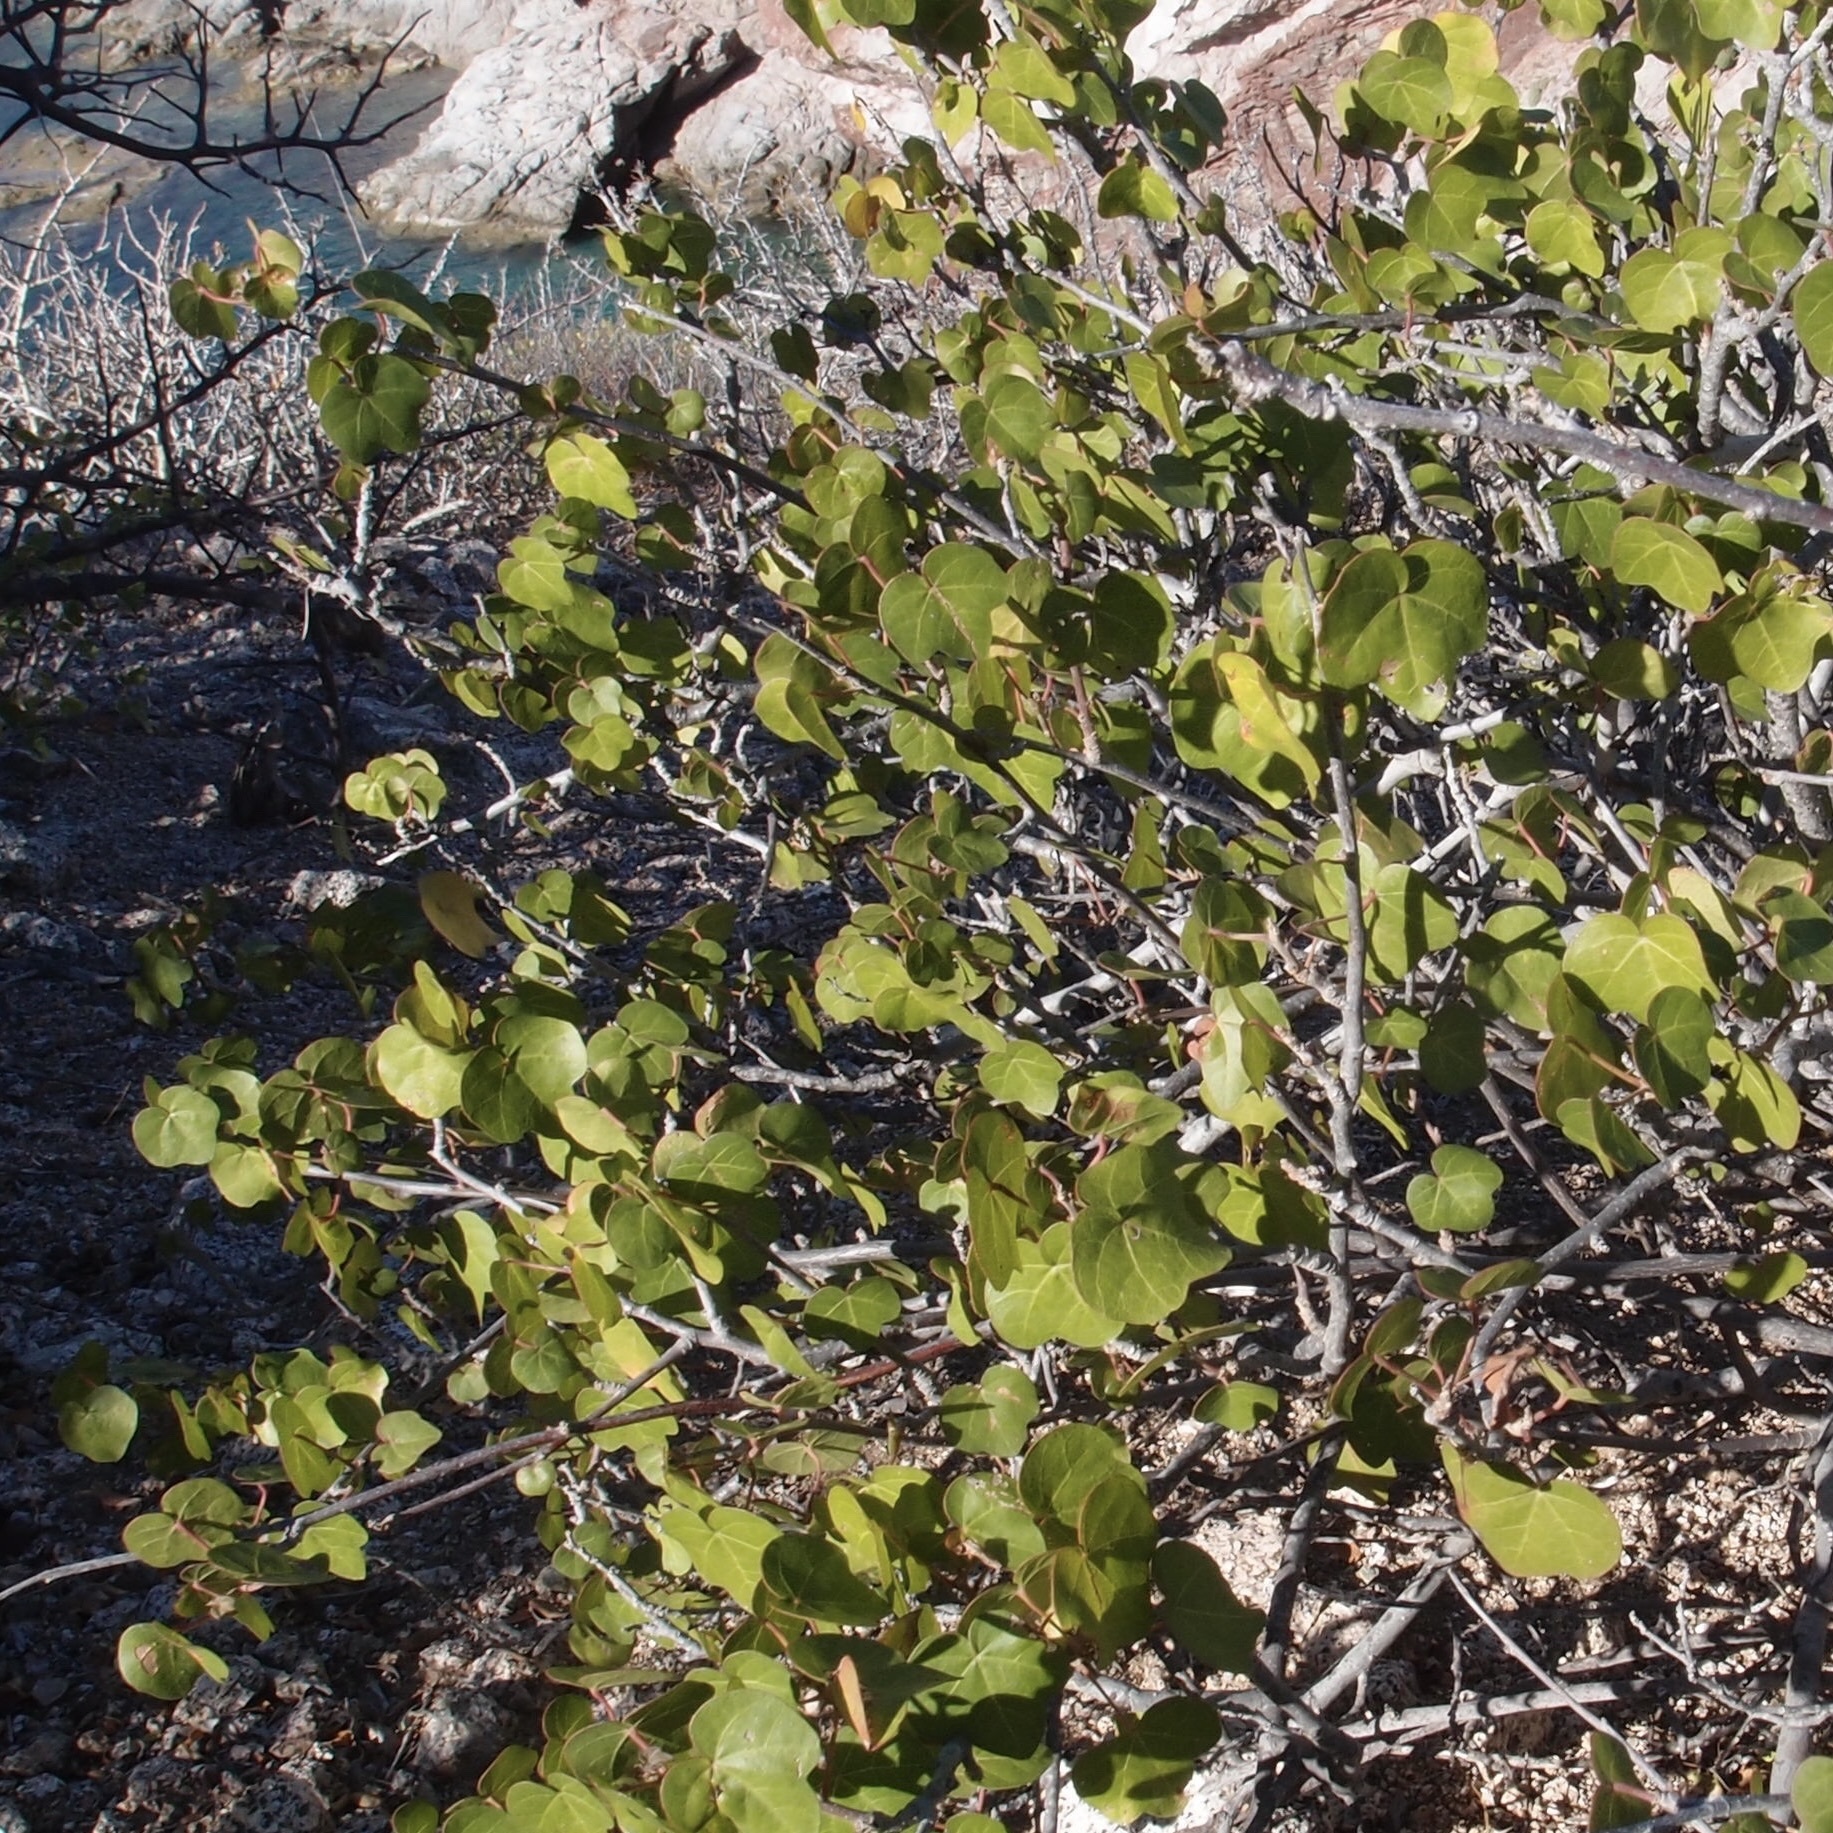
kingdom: Plantae
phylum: Tracheophyta
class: Magnoliopsida
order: Malvales
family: Malvaceae
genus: Gossypium
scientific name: Gossypium turneri
